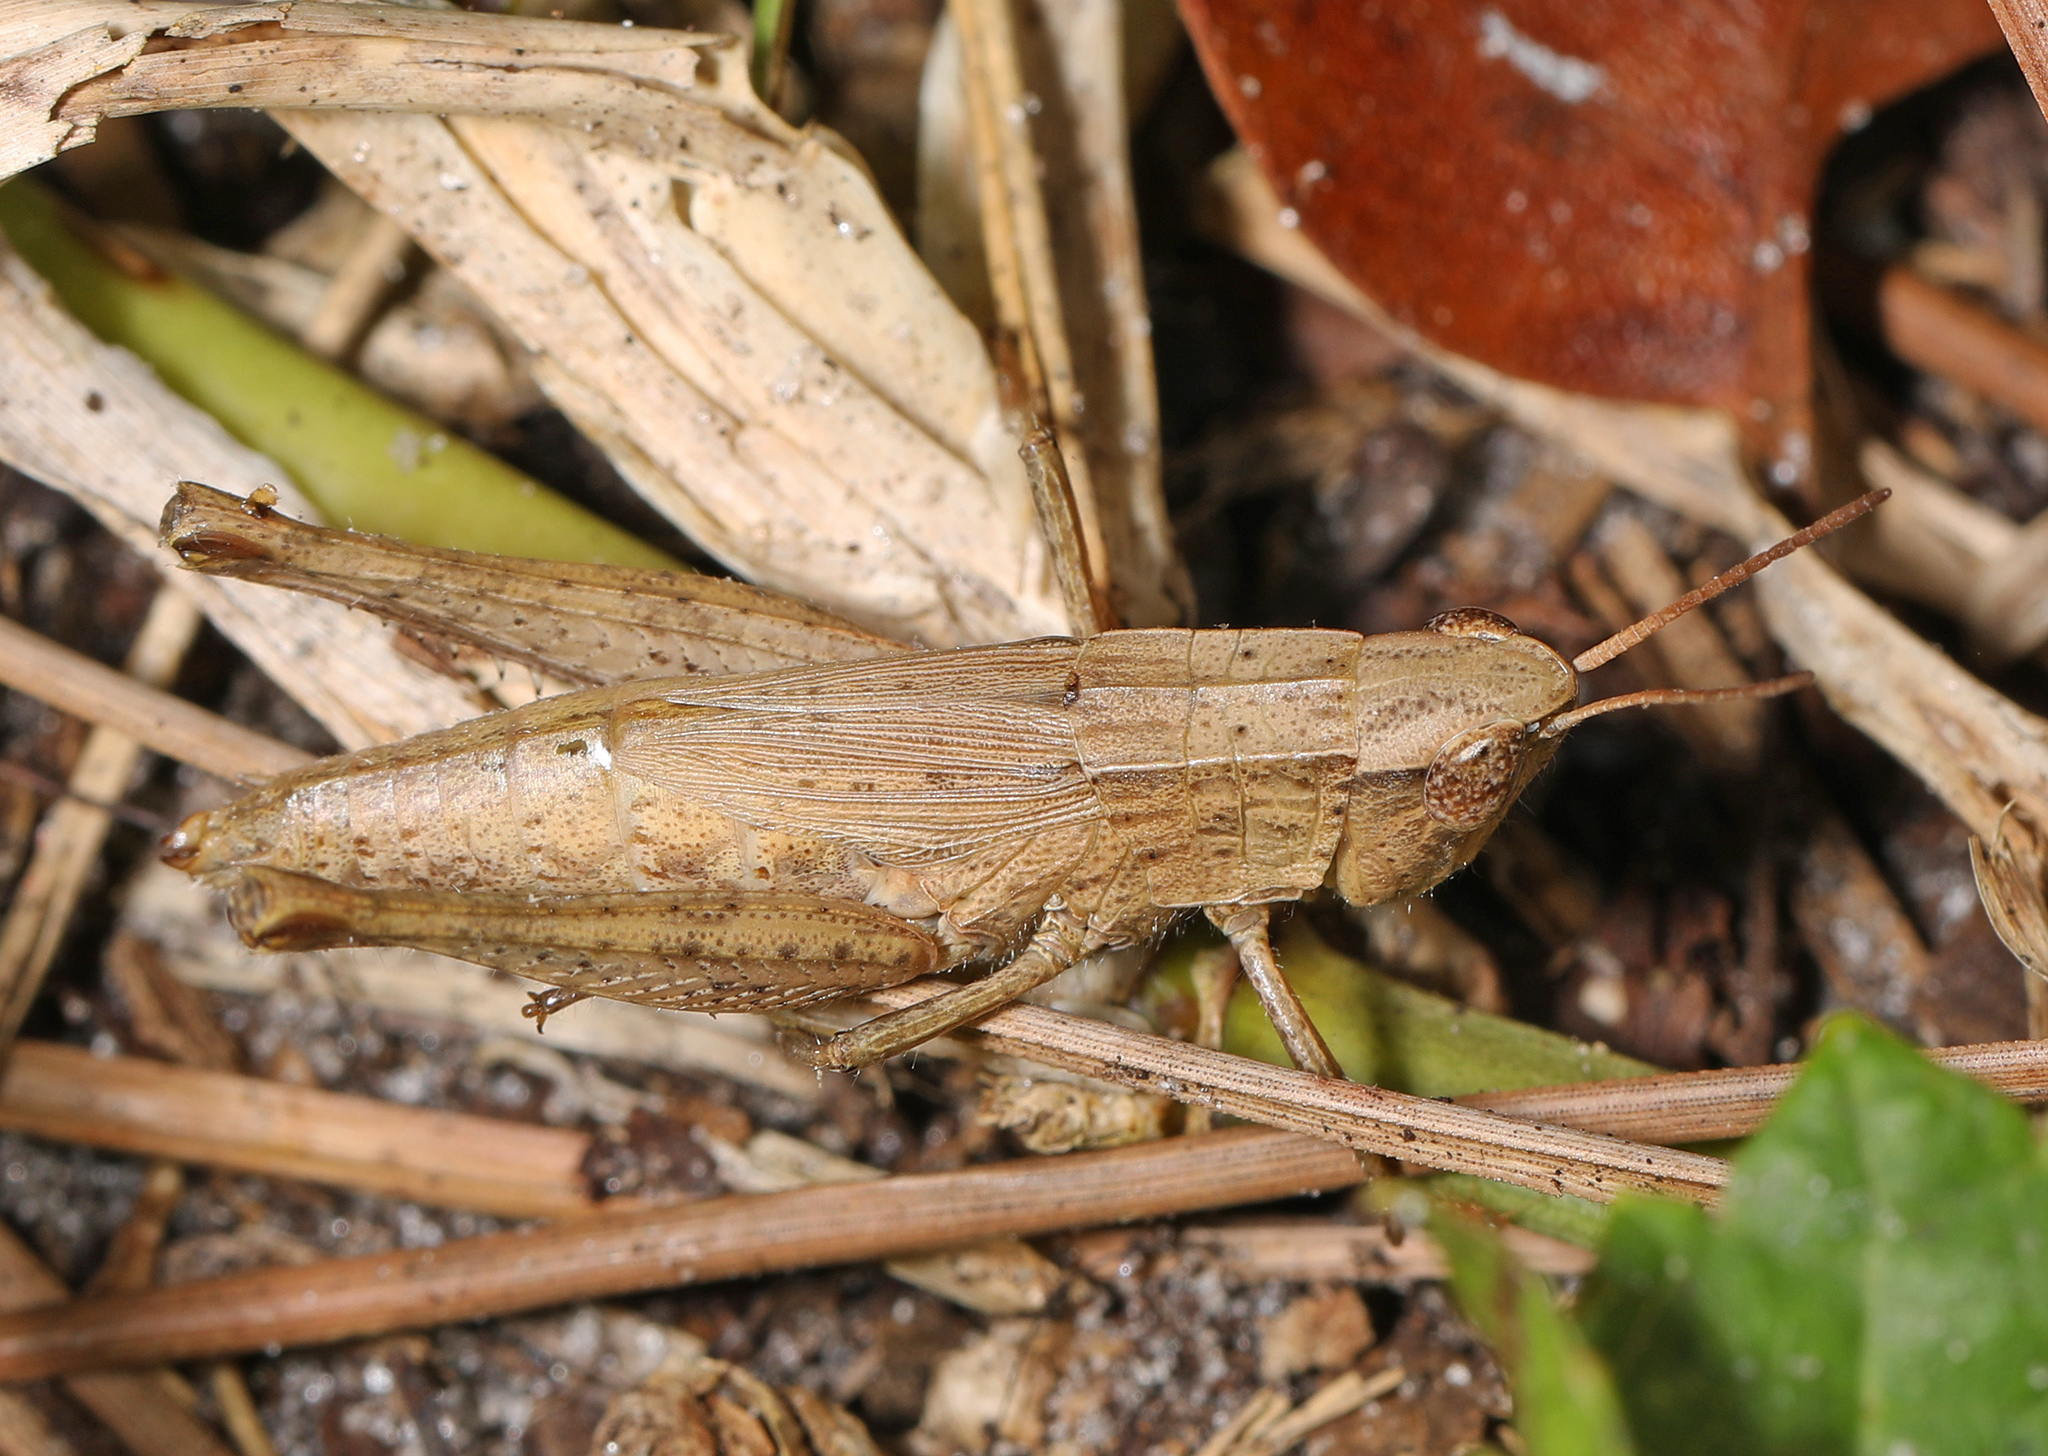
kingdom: Animalia
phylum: Arthropoda
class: Insecta
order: Orthoptera
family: Acrididae
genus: Dichromorpha
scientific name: Dichromorpha viridis
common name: Short-winged green grasshopper
